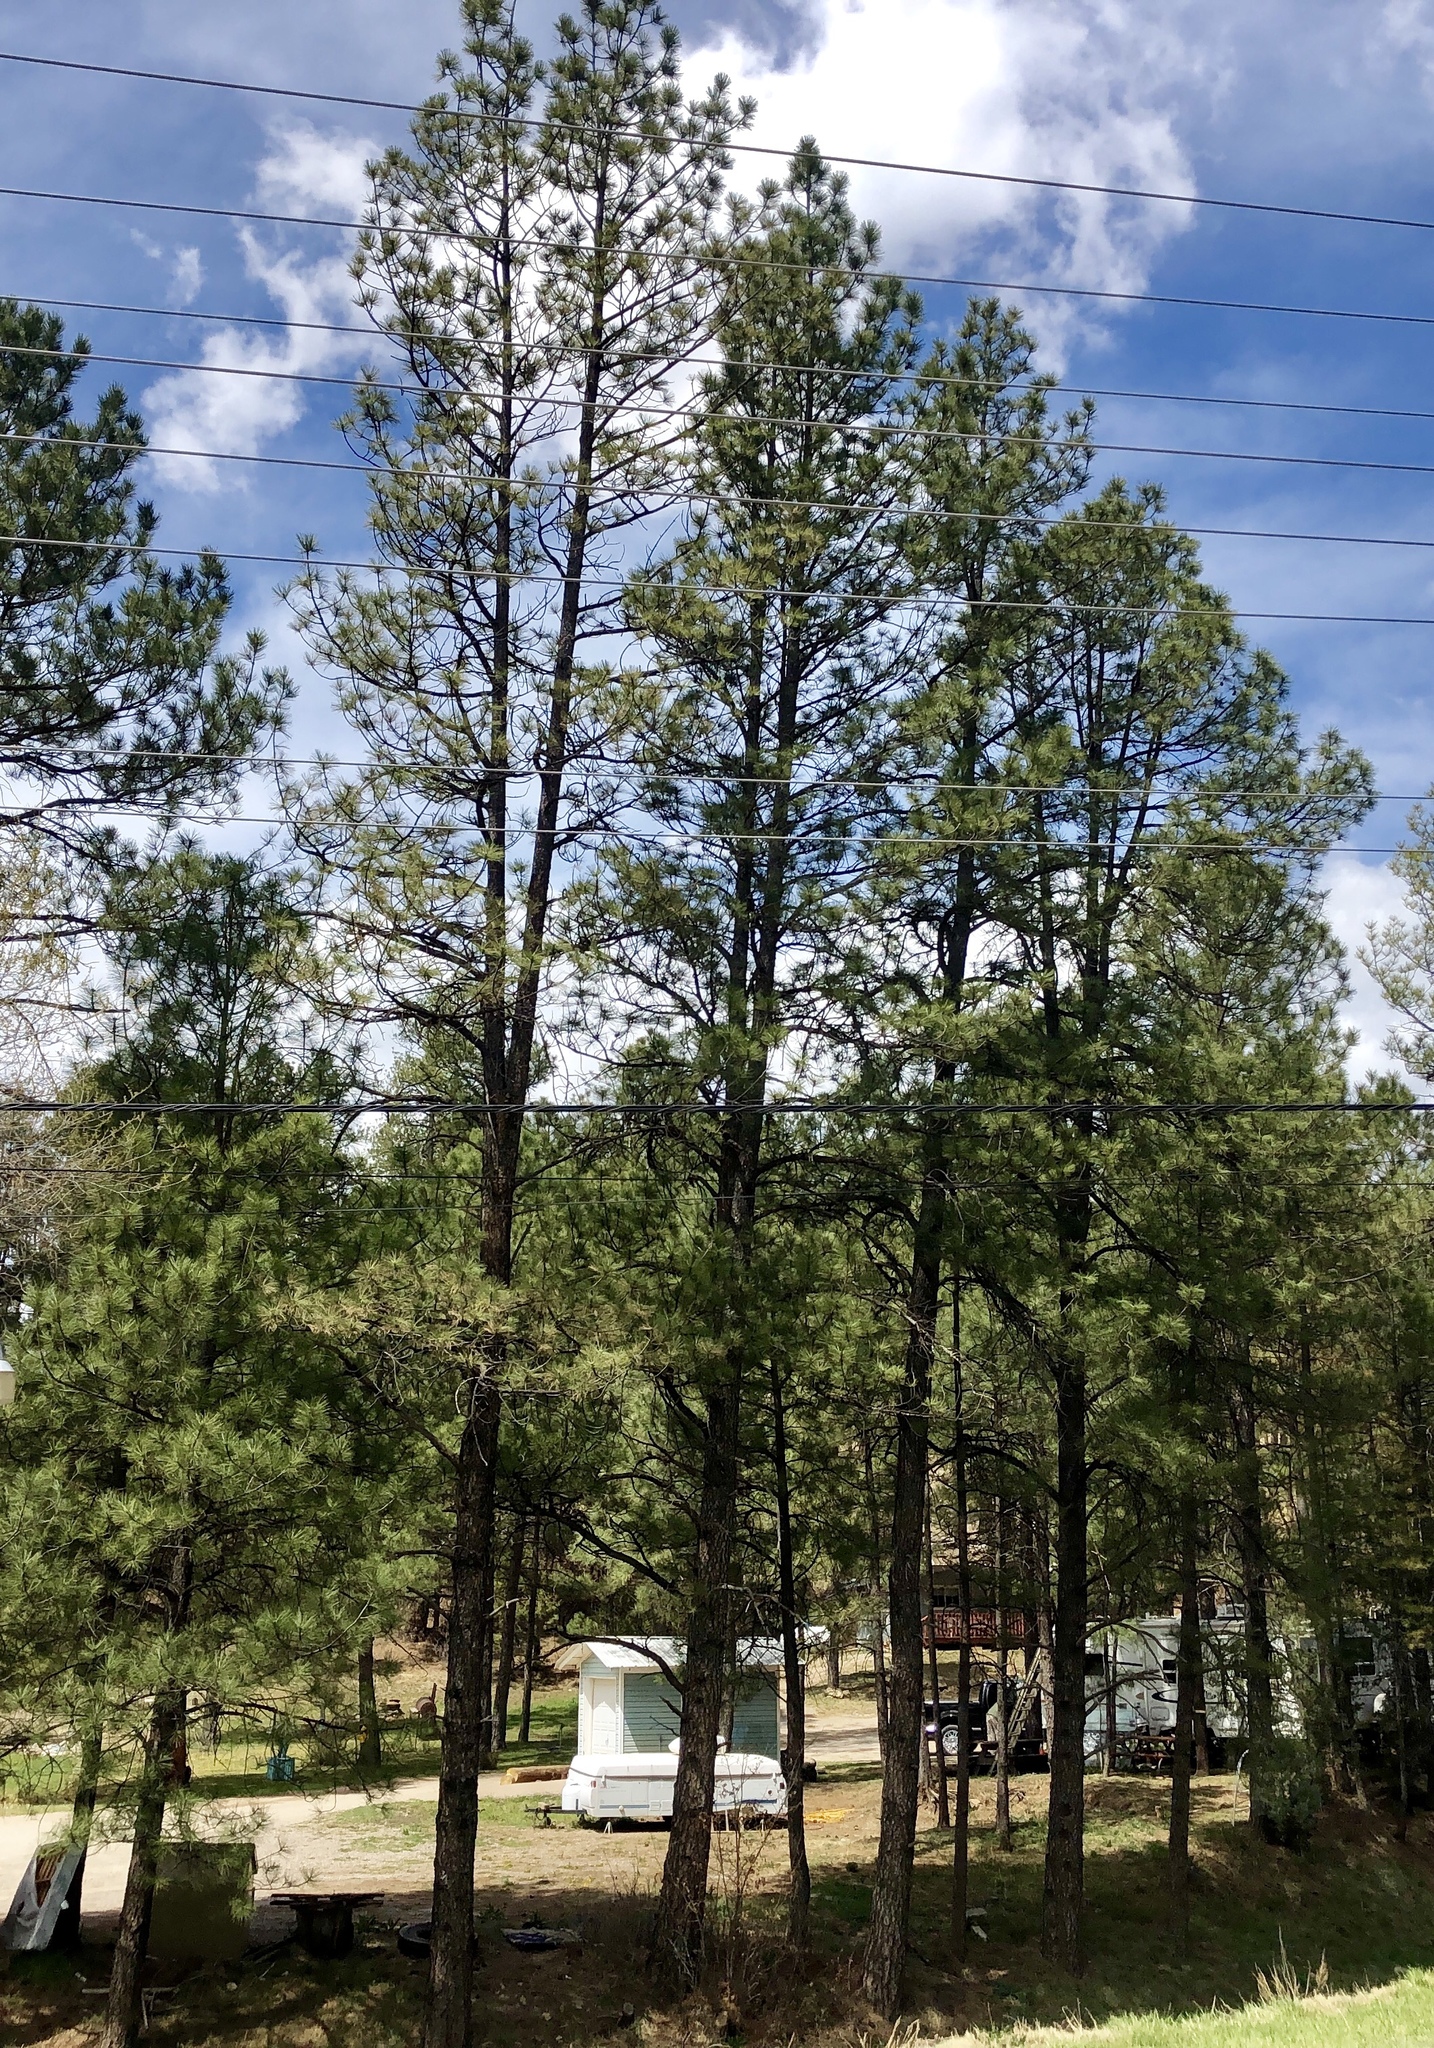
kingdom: Plantae
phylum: Tracheophyta
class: Pinopsida
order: Pinales
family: Pinaceae
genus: Pinus
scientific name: Pinus ponderosa
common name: Western yellow-pine
